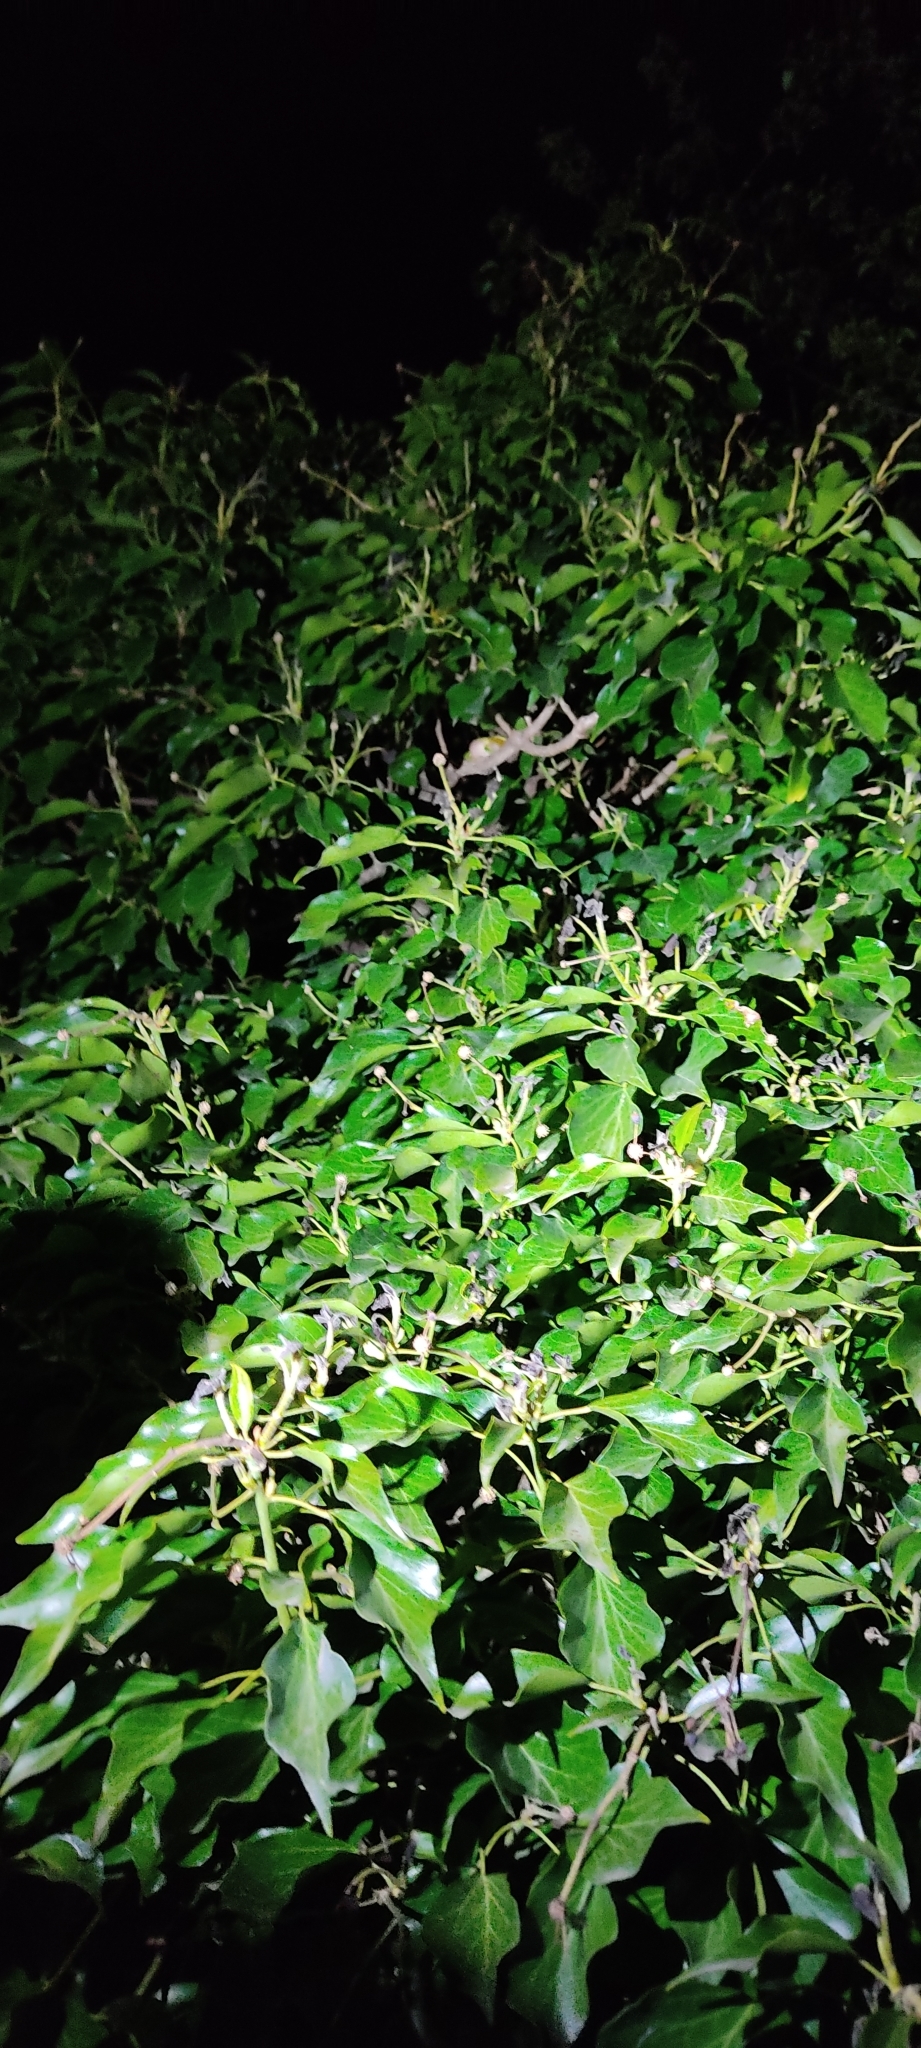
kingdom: Animalia
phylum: Chordata
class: Amphibia
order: Anura
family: Hylidae
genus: Hyla
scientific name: Hyla meridionalis
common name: Stripeless tree frog
